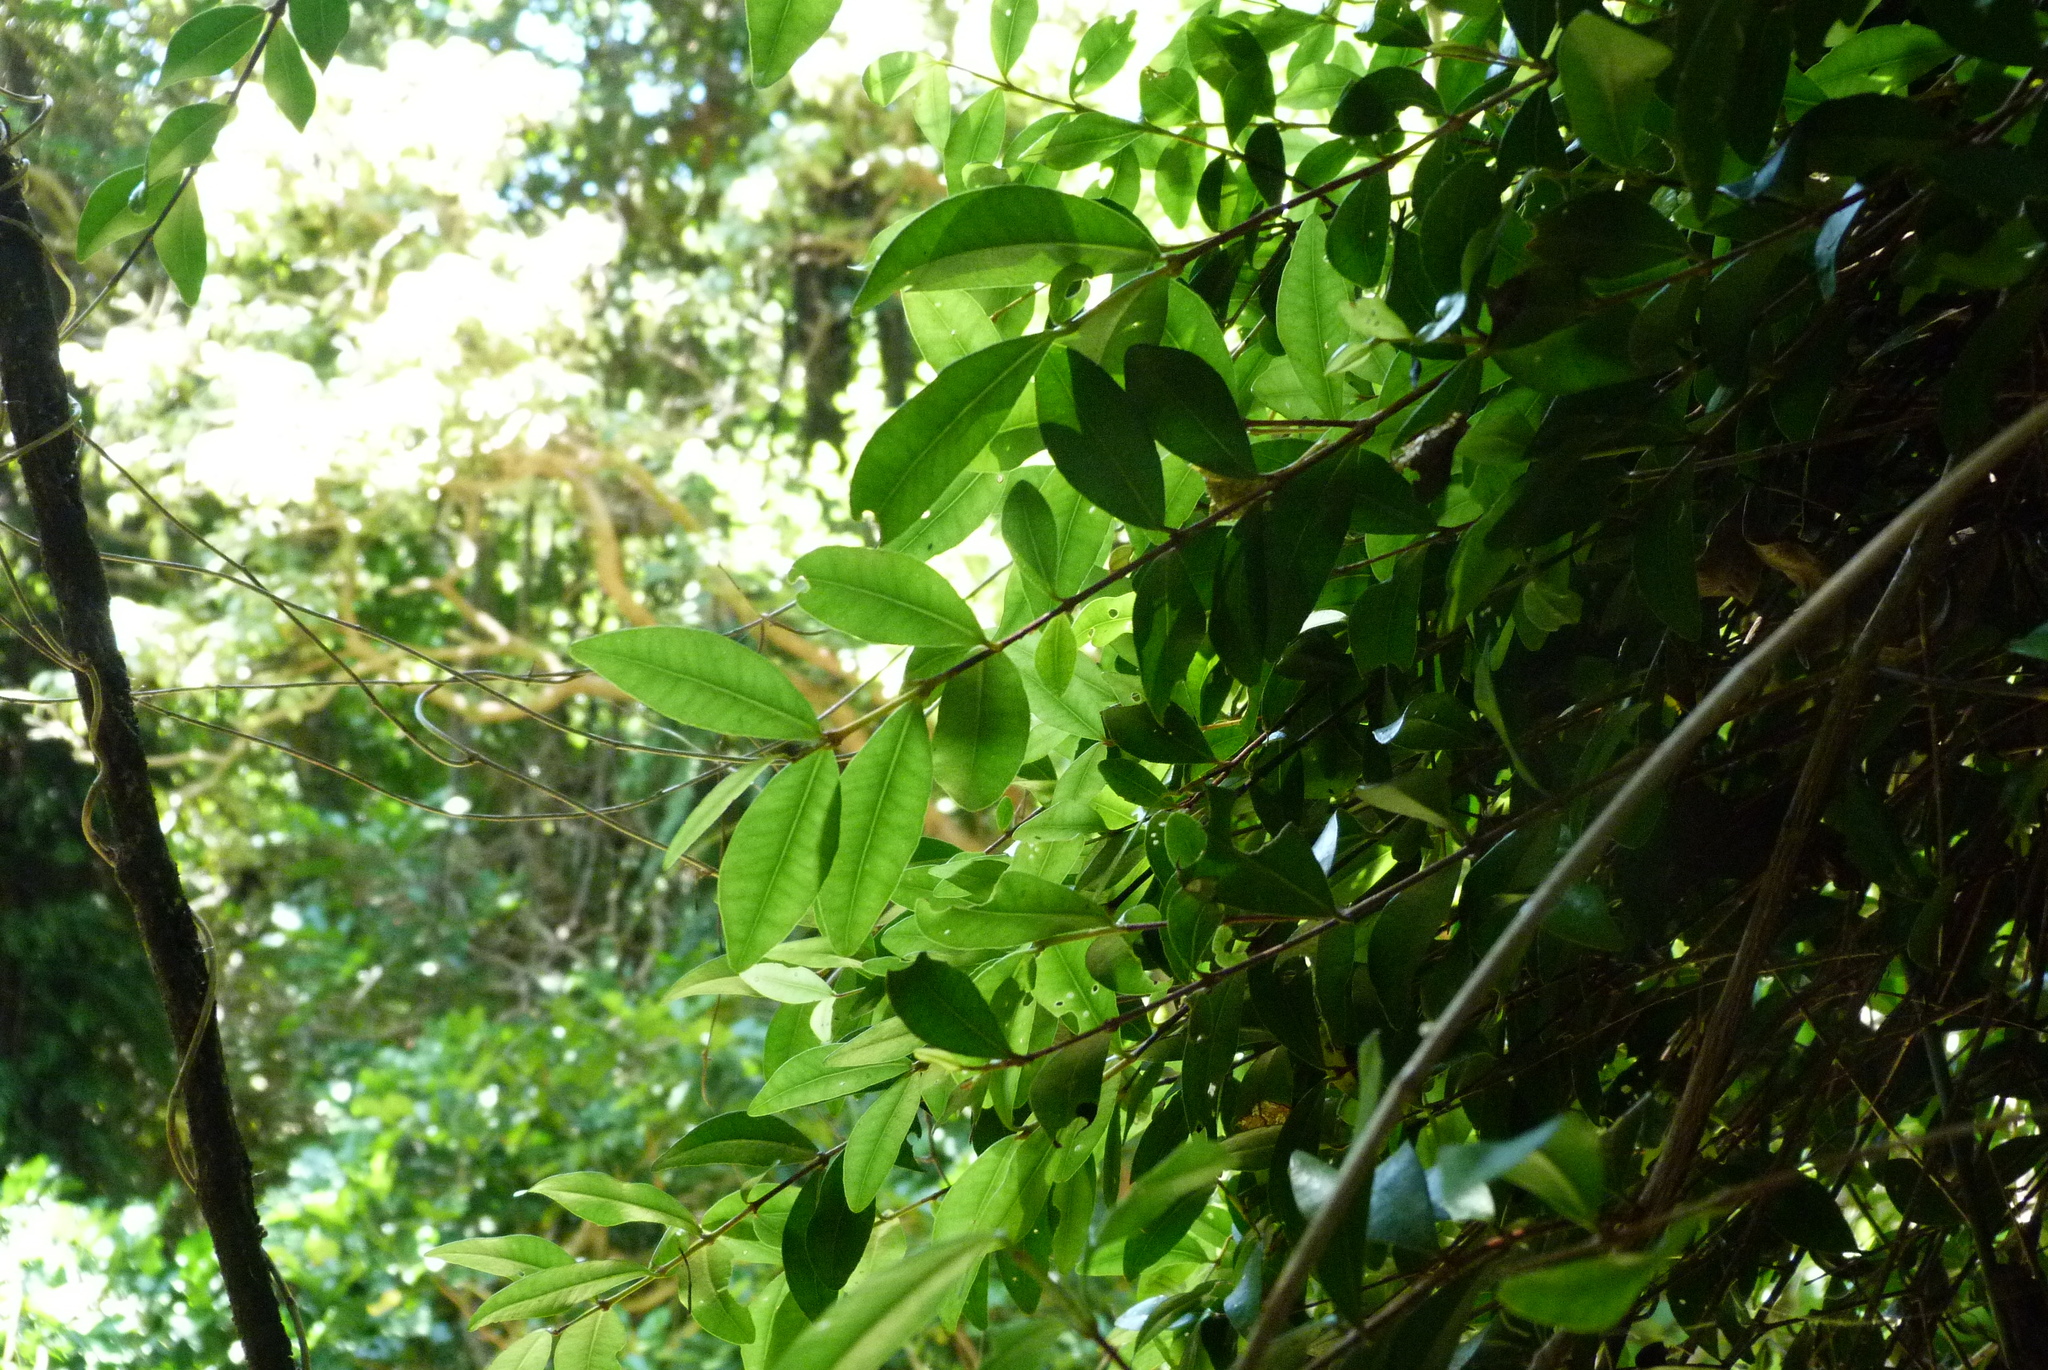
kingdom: Plantae
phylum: Tracheophyta
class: Magnoliopsida
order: Myrtales
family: Myrtaceae
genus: Metrosideros
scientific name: Metrosideros fulgens
